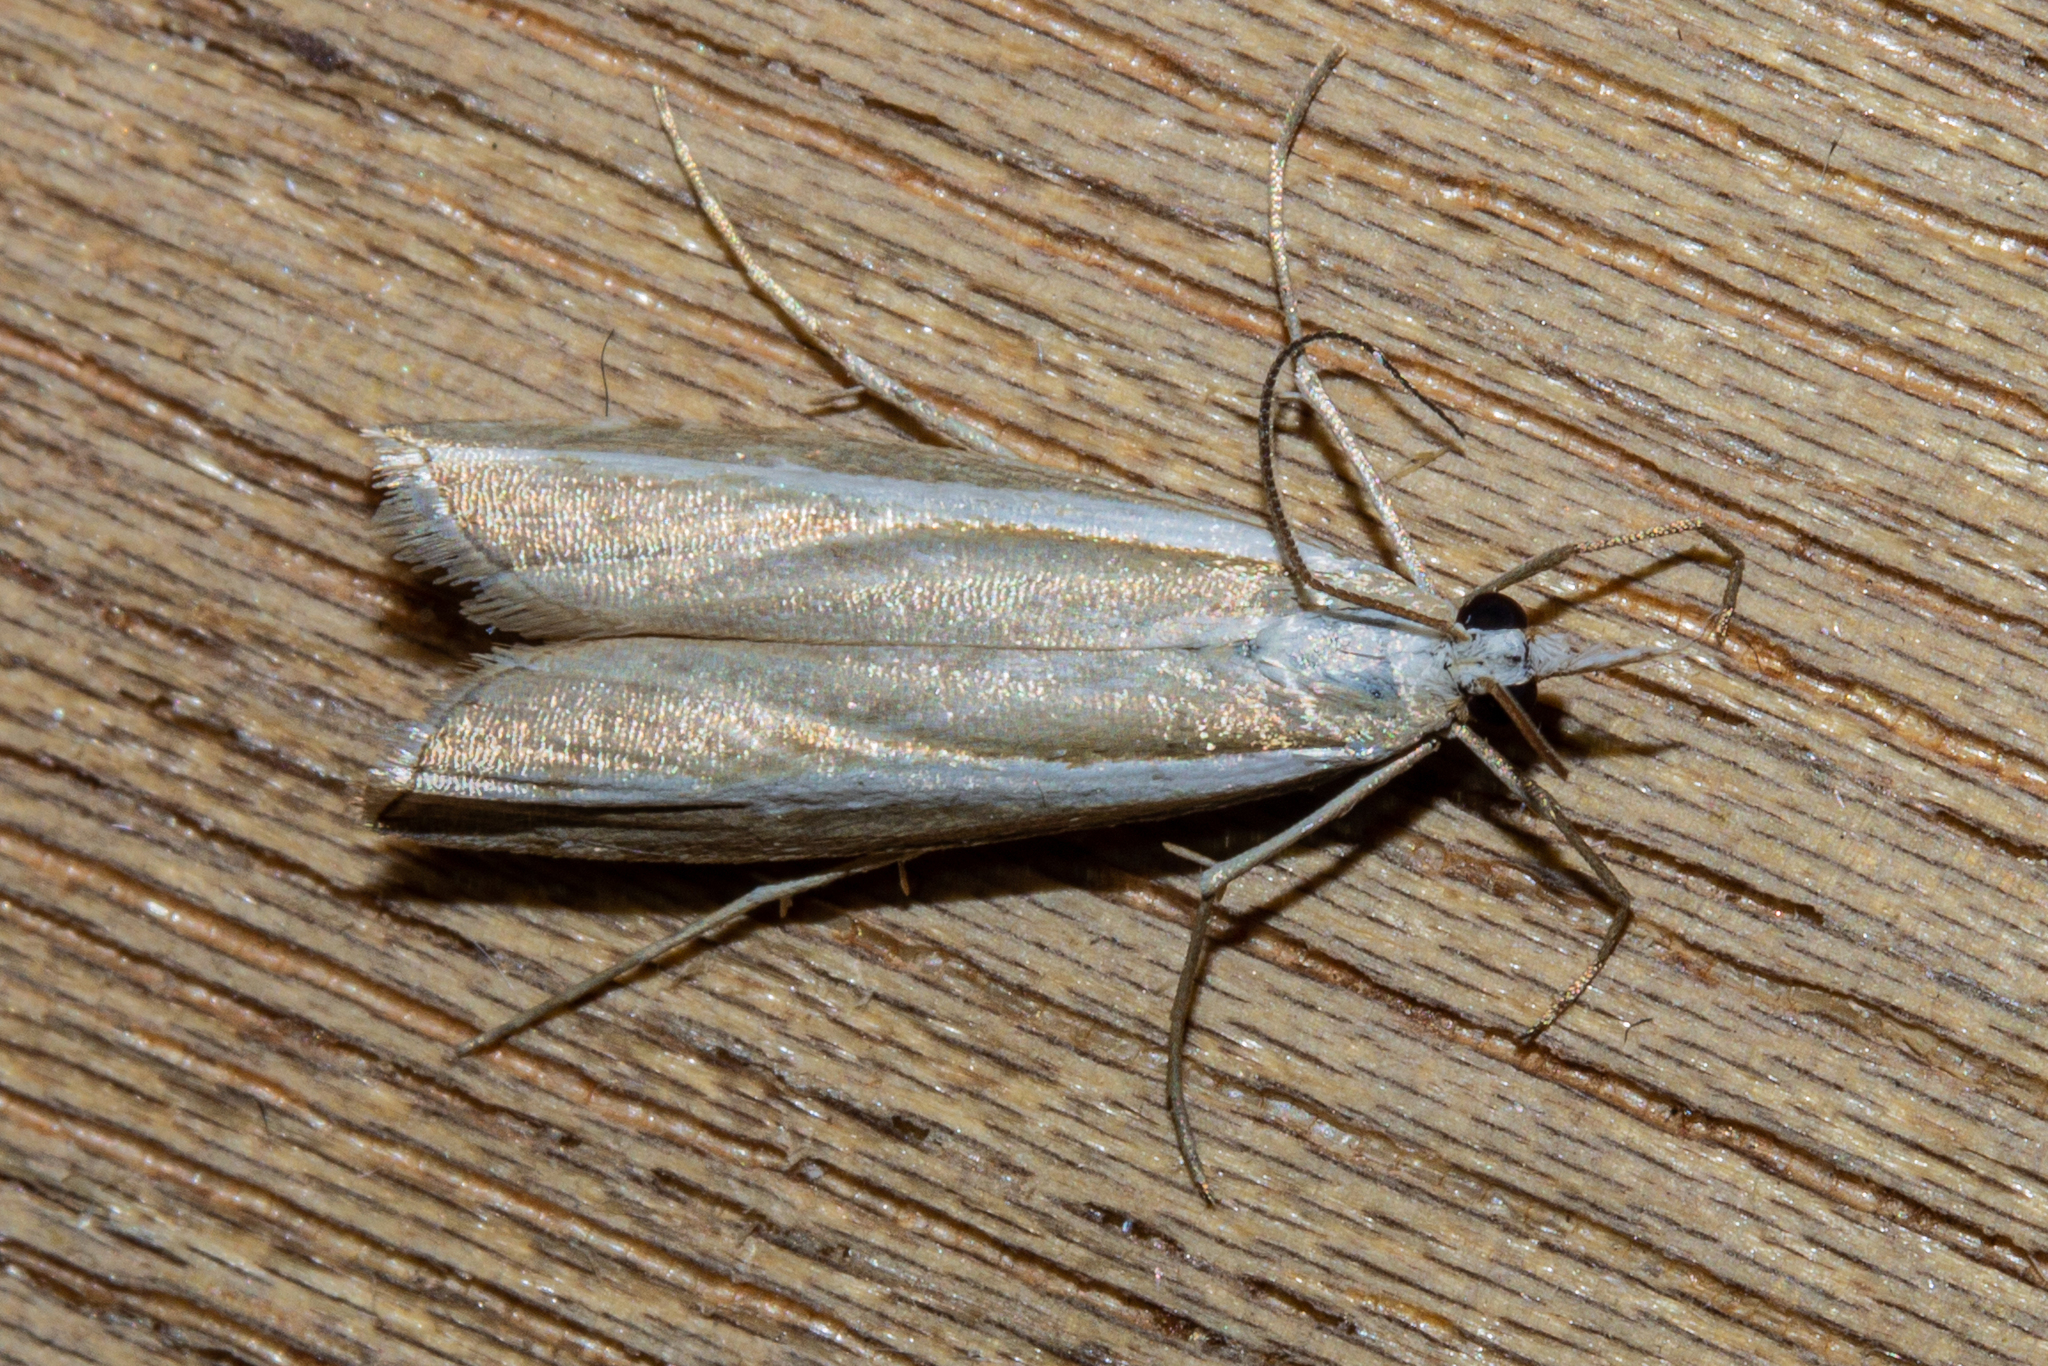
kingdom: Animalia
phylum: Arthropoda
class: Insecta
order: Lepidoptera
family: Crambidae
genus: Orocrambus
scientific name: Orocrambus vittellus
